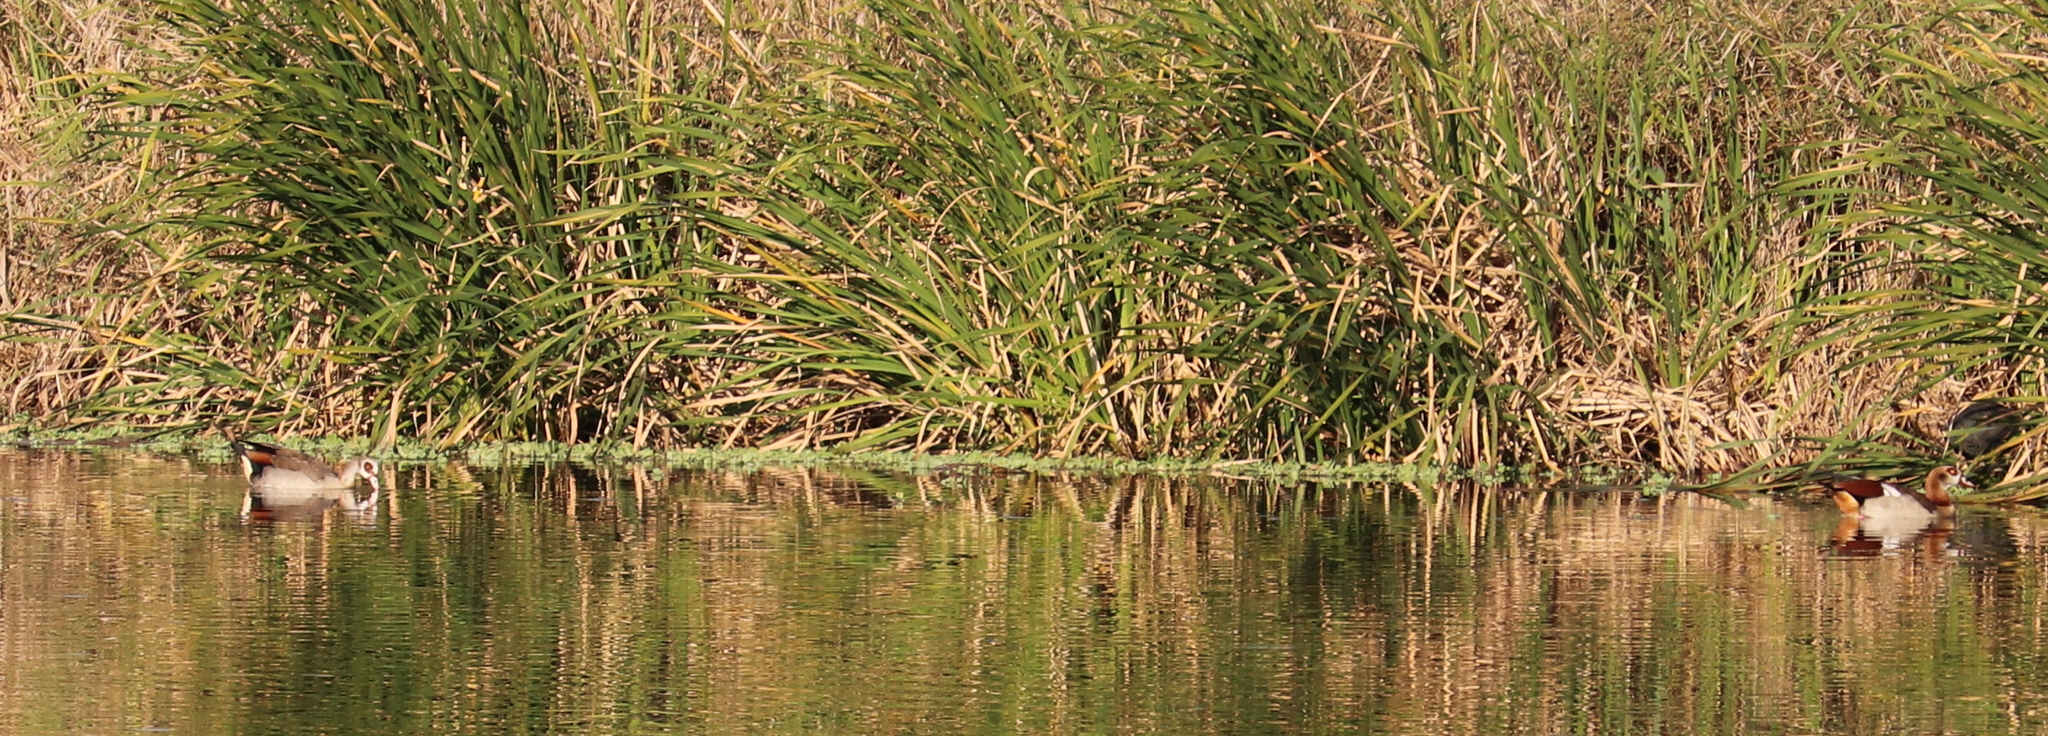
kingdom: Animalia
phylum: Chordata
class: Aves
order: Anseriformes
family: Anatidae
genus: Alopochen
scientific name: Alopochen aegyptiaca
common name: Egyptian goose
